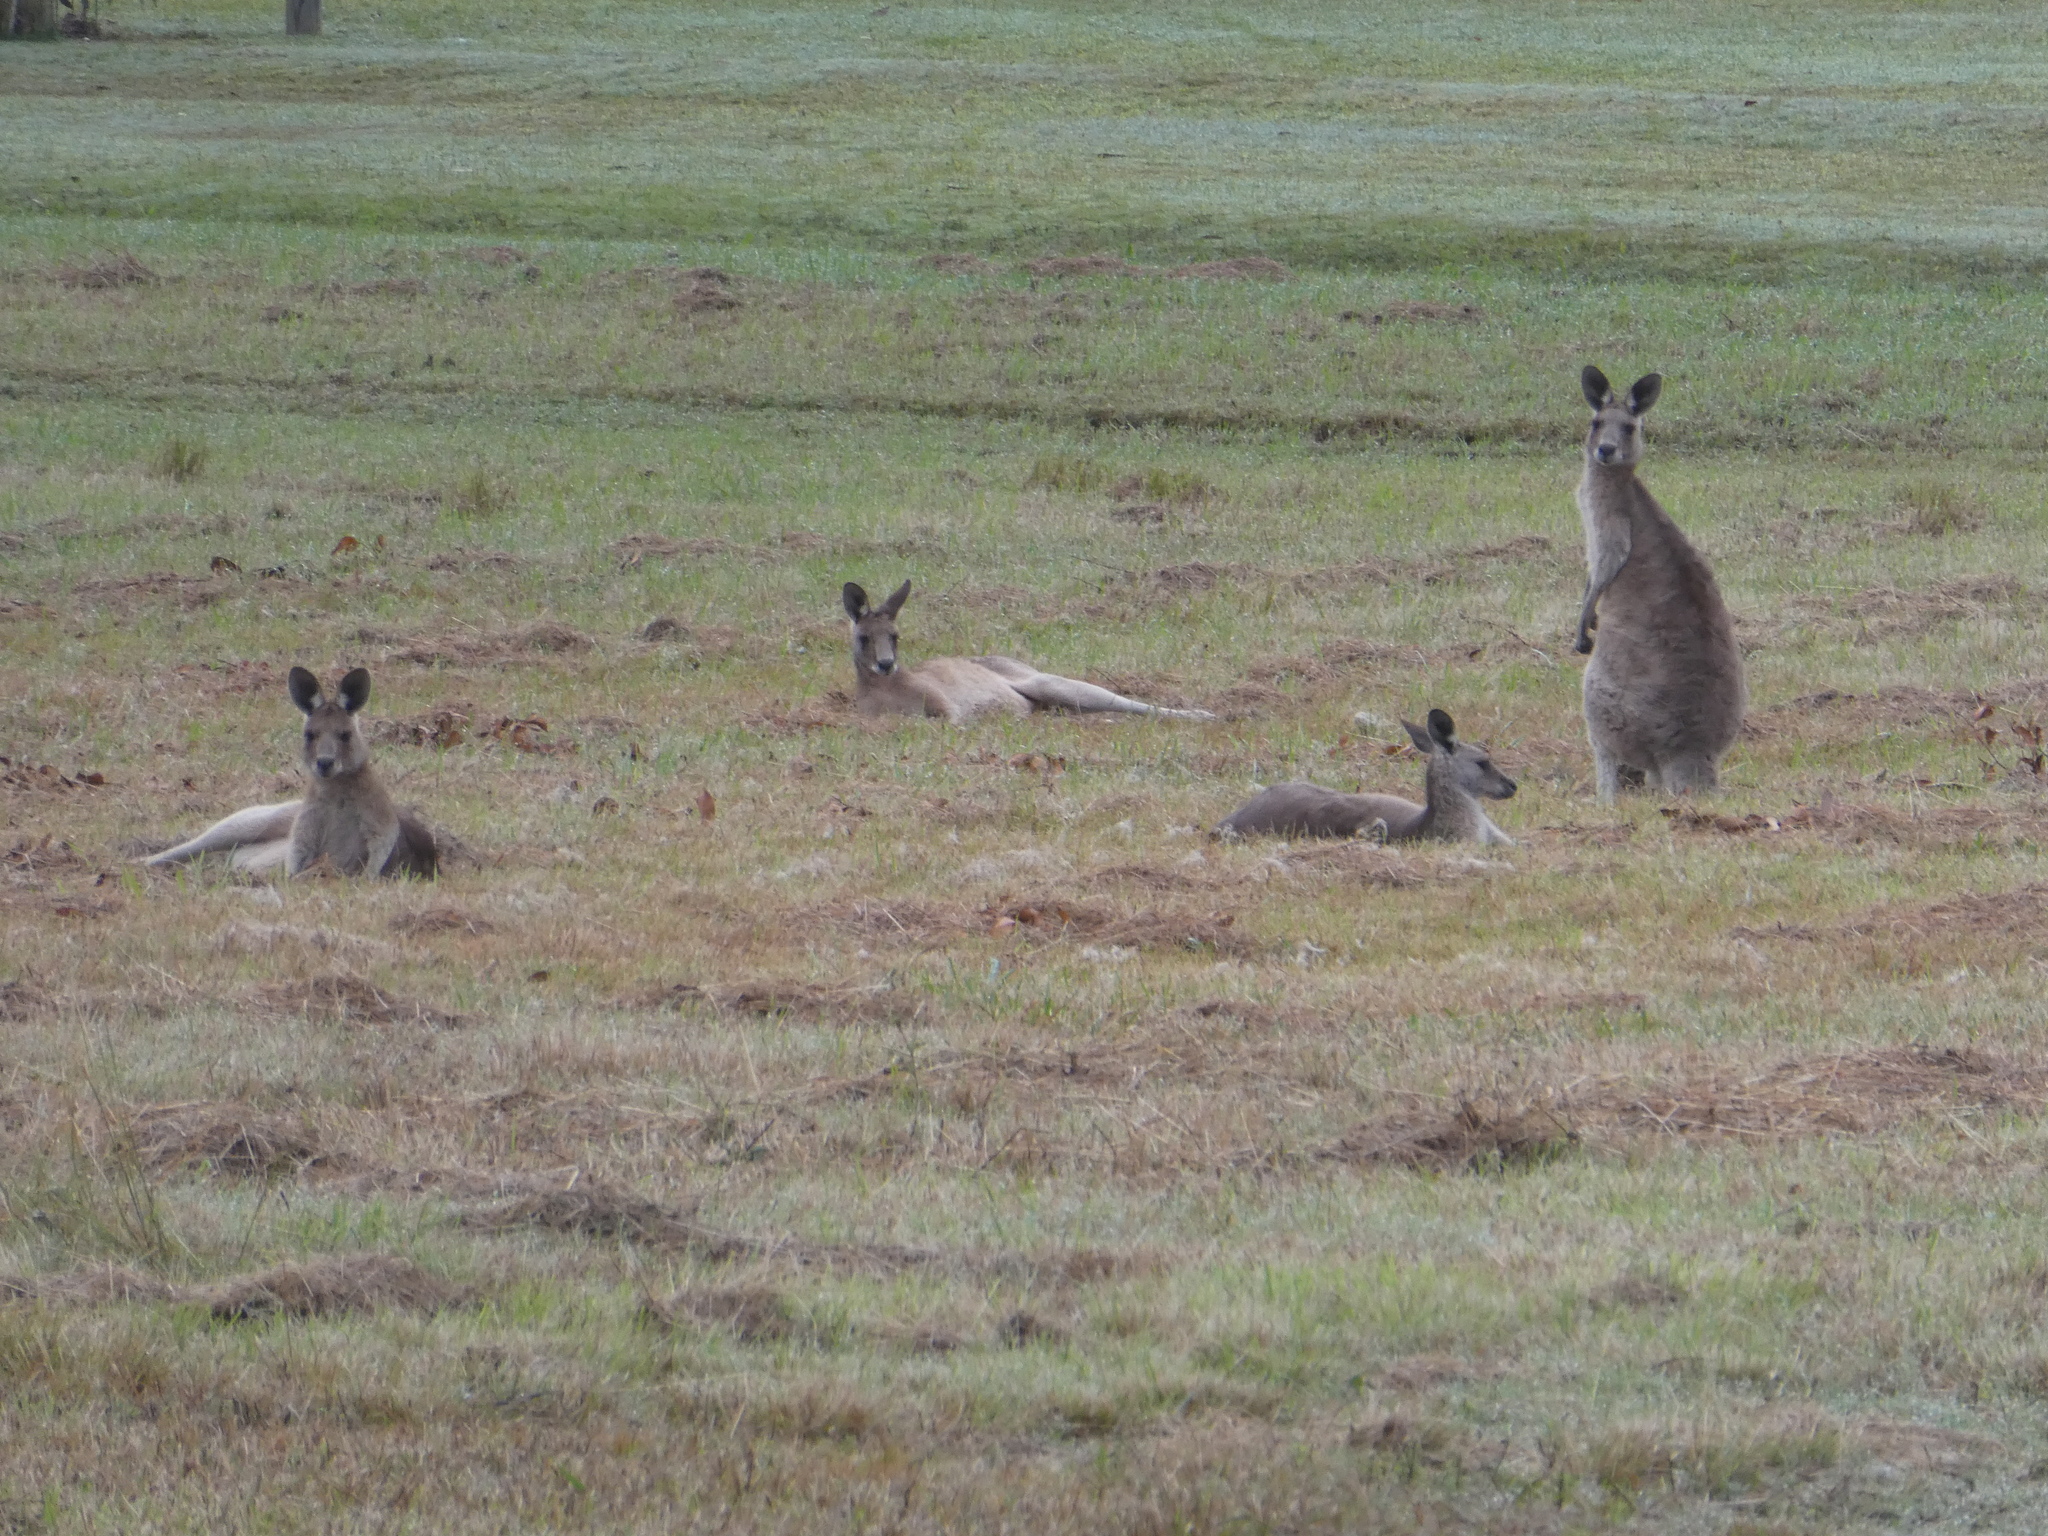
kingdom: Animalia
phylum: Chordata
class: Mammalia
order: Diprotodontia
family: Macropodidae
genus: Macropus
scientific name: Macropus giganteus
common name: Eastern grey kangaroo
